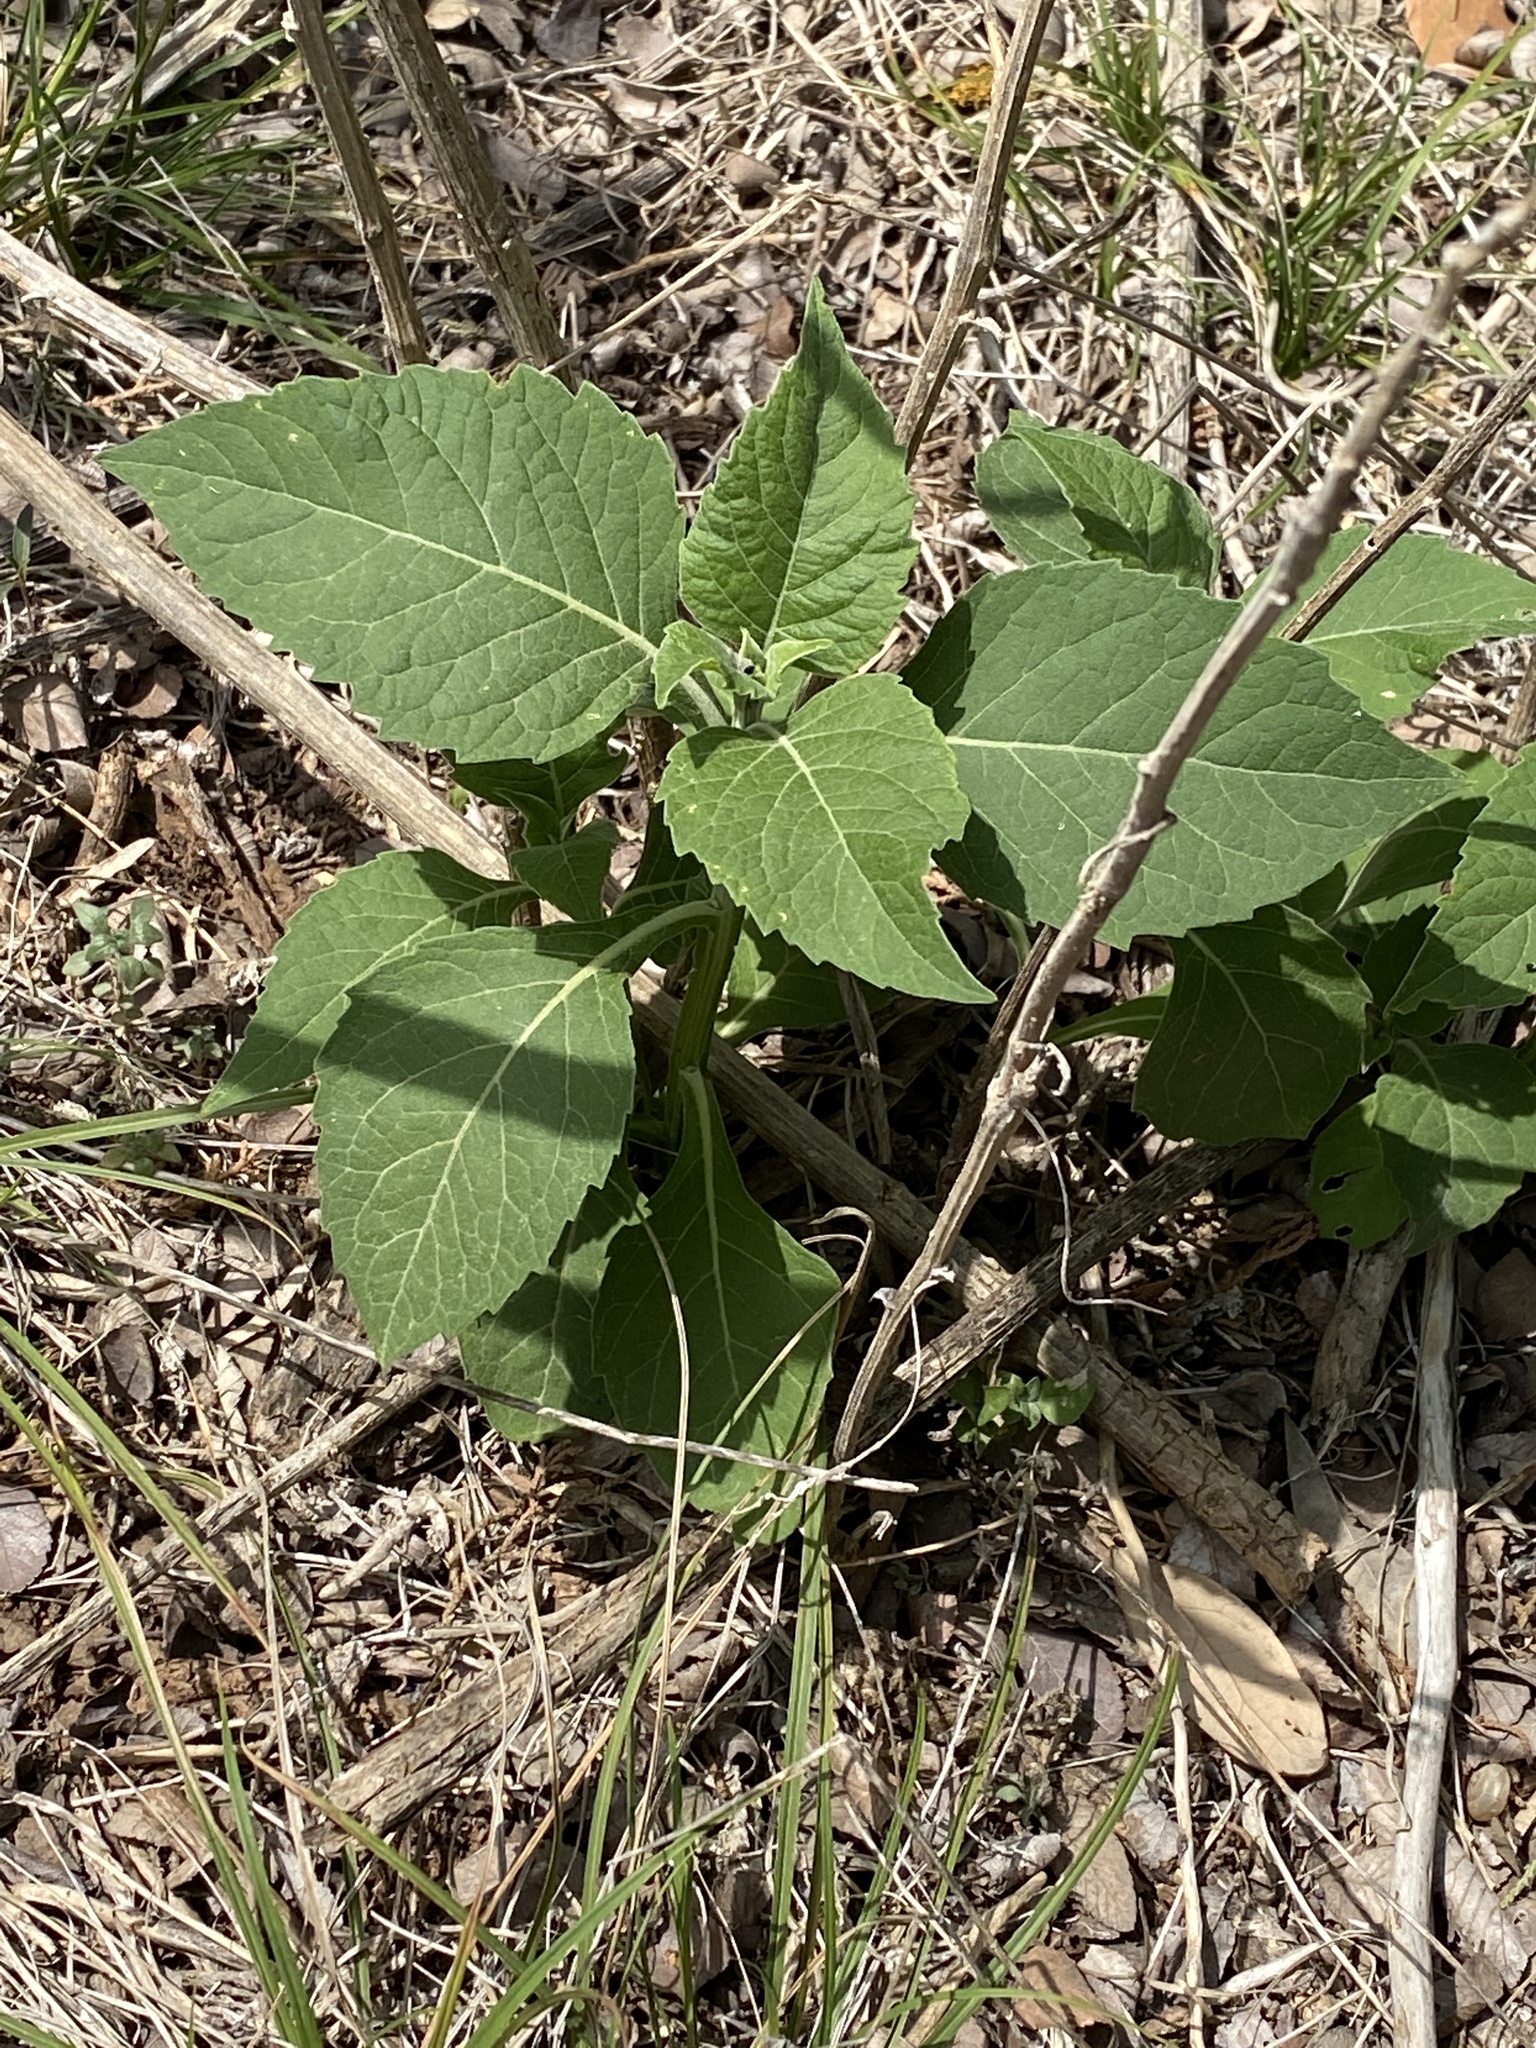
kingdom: Plantae
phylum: Tracheophyta
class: Magnoliopsida
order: Asterales
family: Asteraceae
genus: Verbesina
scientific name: Verbesina virginica
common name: Frostweed
